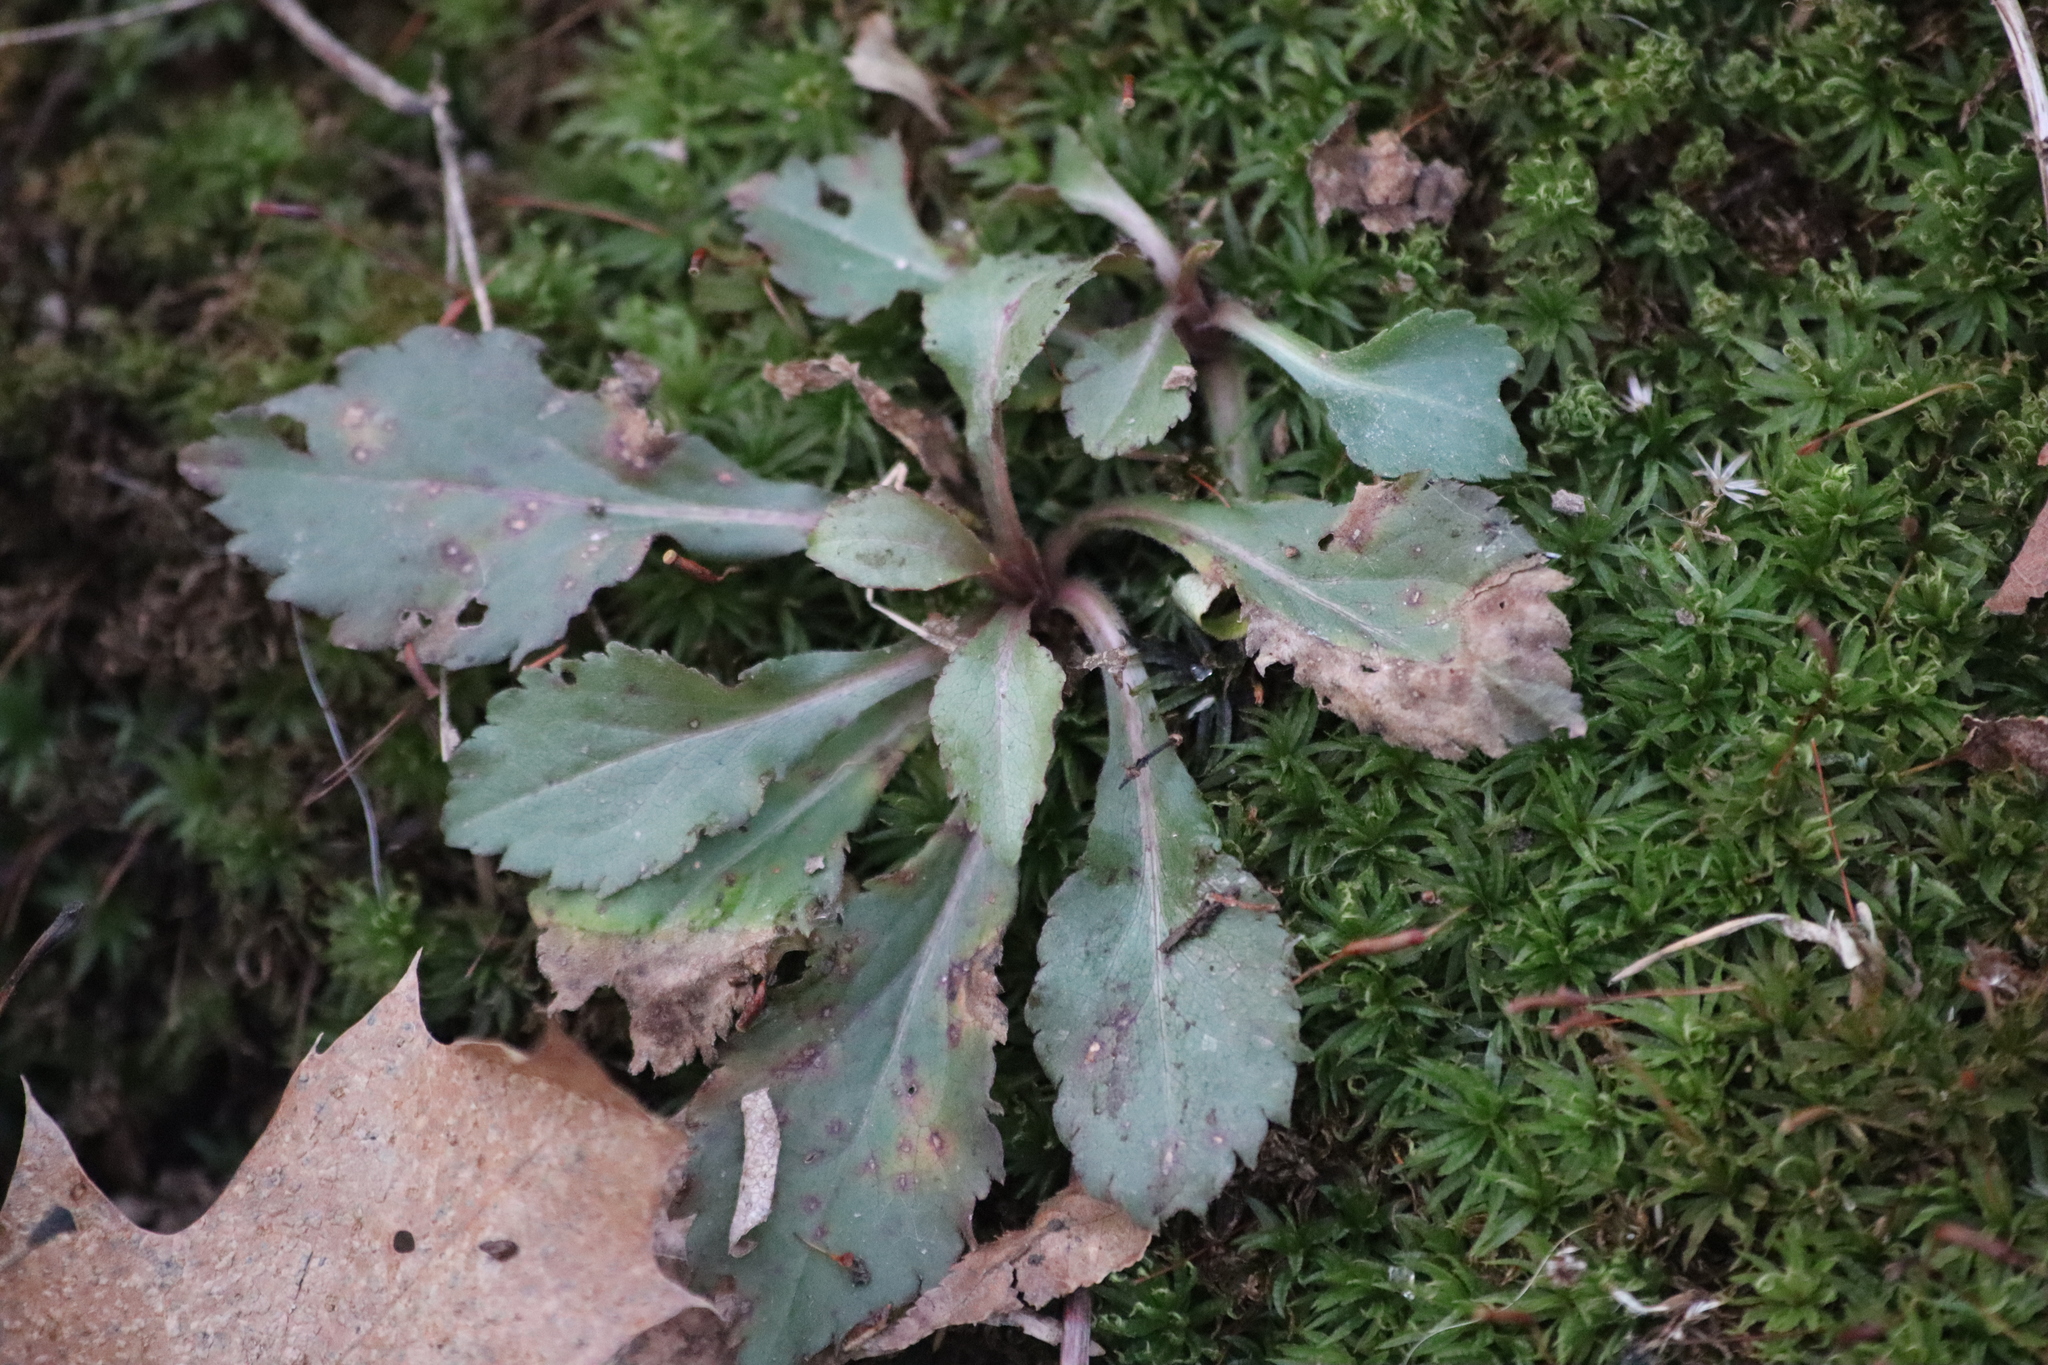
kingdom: Plantae
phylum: Tracheophyta
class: Magnoliopsida
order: Brassicales
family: Brassicaceae
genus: Borodinia
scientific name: Borodinia laevigata
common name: Smooth rockcress
